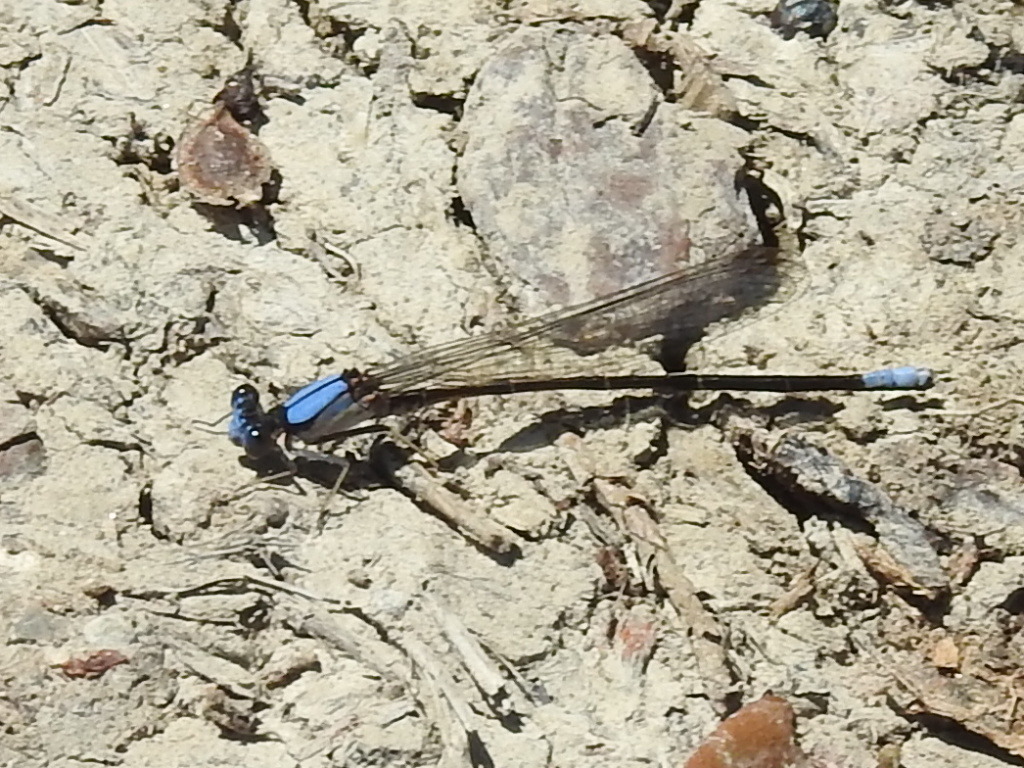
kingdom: Animalia
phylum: Arthropoda
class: Insecta
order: Odonata
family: Coenagrionidae
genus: Argia
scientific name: Argia apicalis
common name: Blue-fronted dancer
